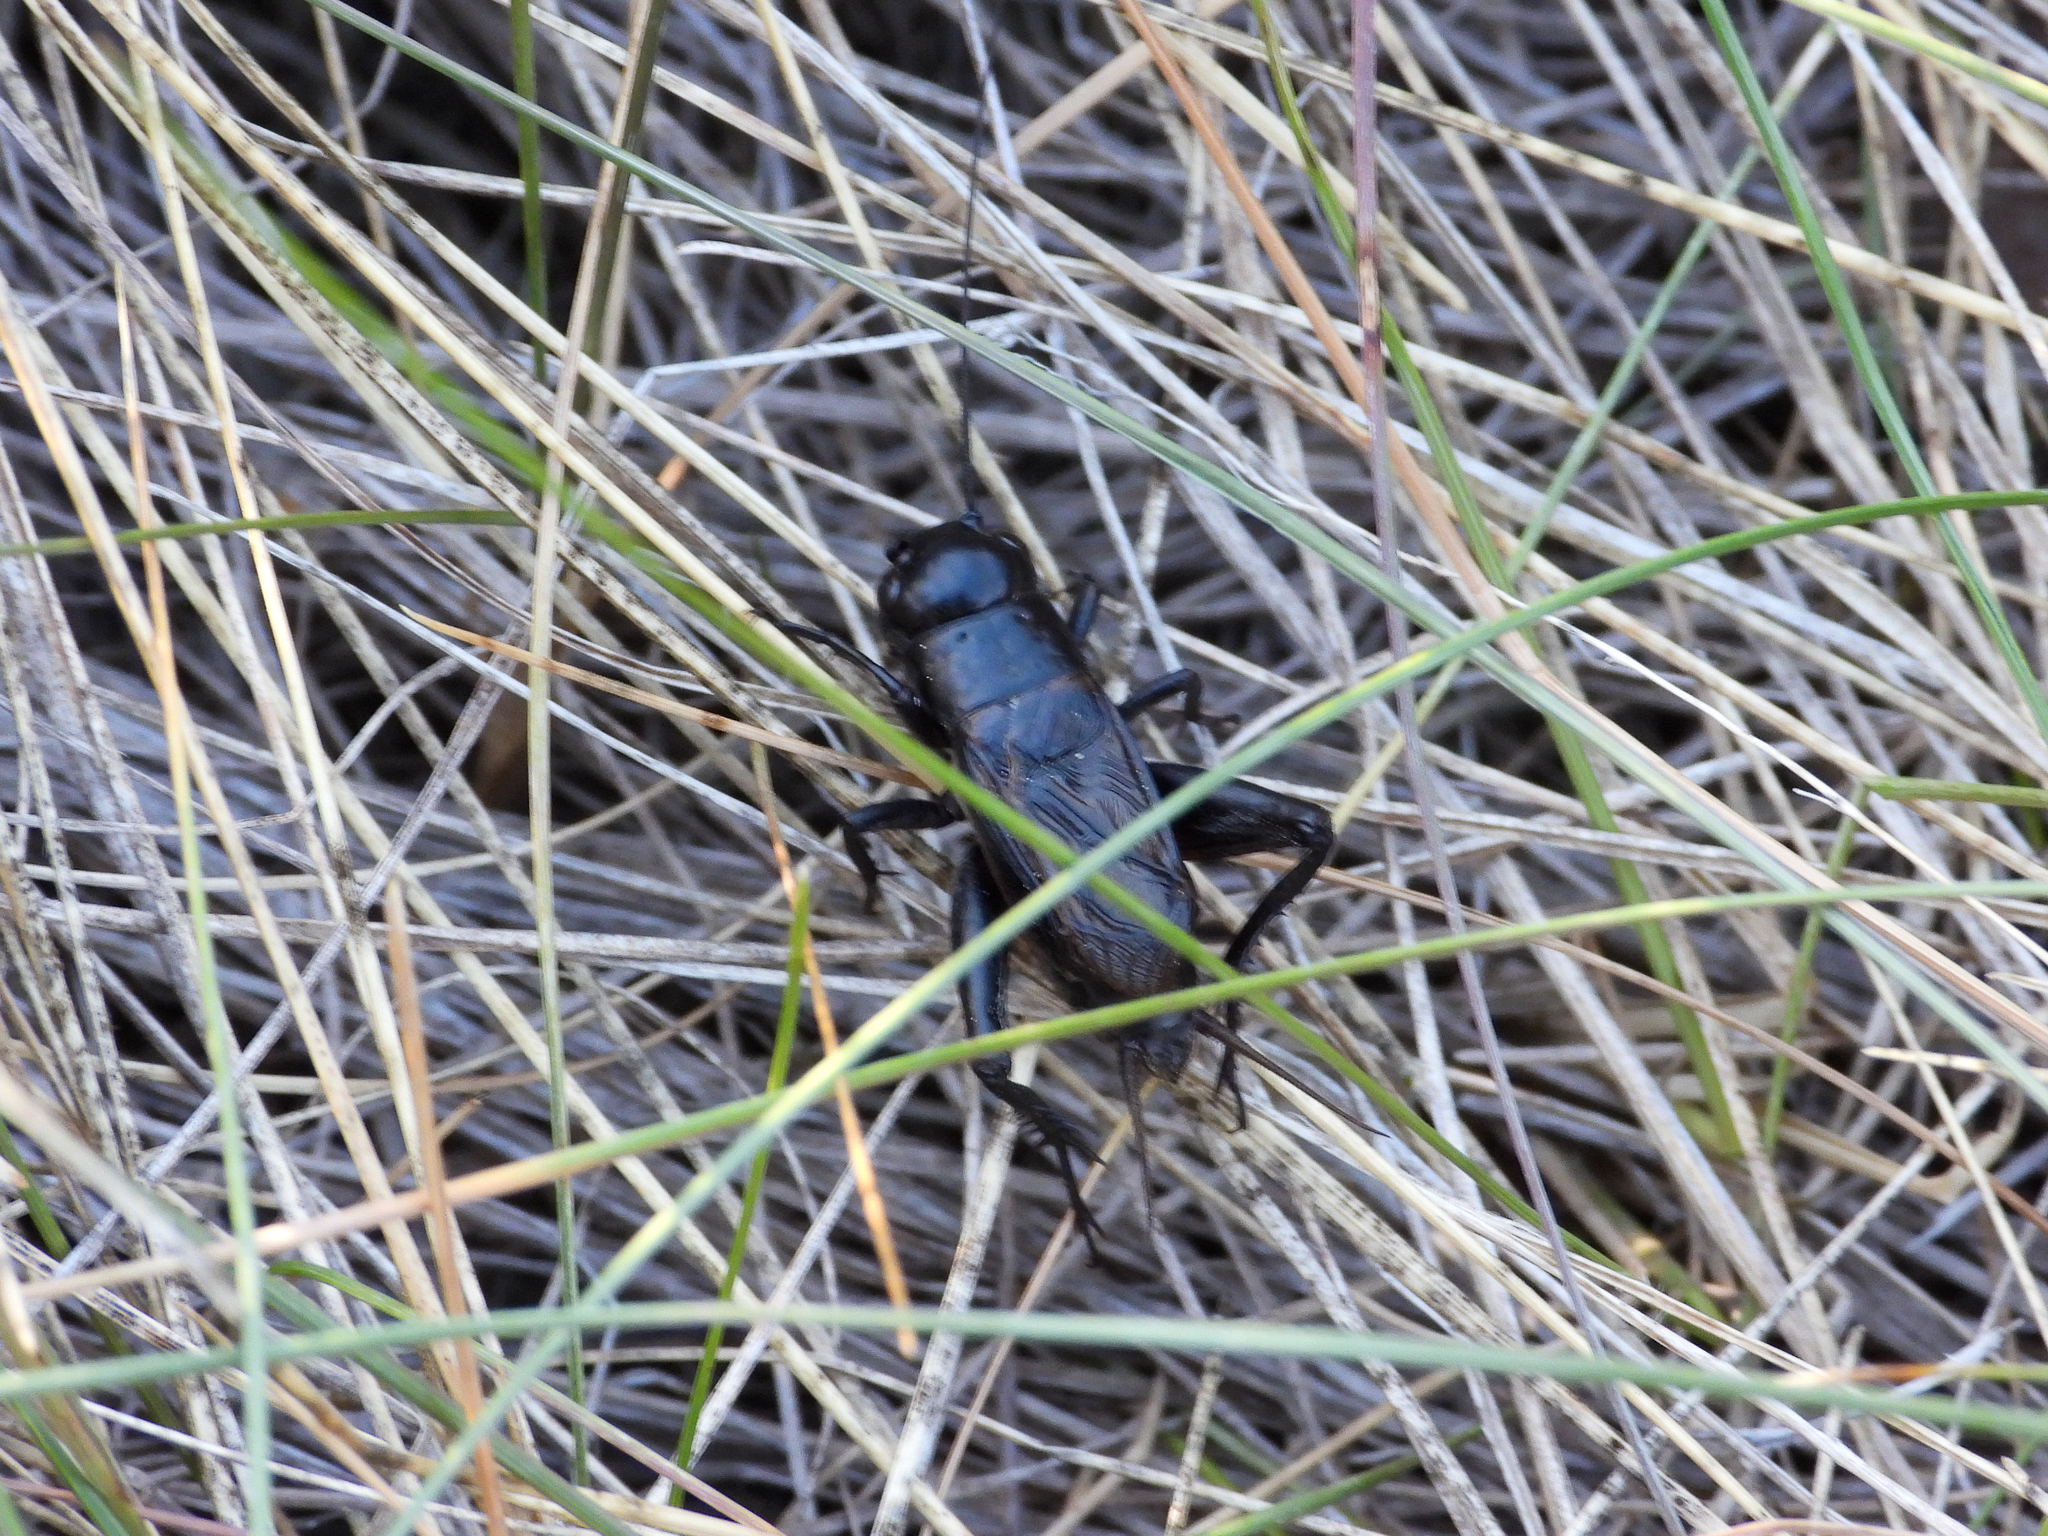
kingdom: Animalia
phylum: Arthropoda
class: Insecta
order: Orthoptera
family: Gryllidae
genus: Gryllus
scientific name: Gryllus veletis
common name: Spring field cricket
